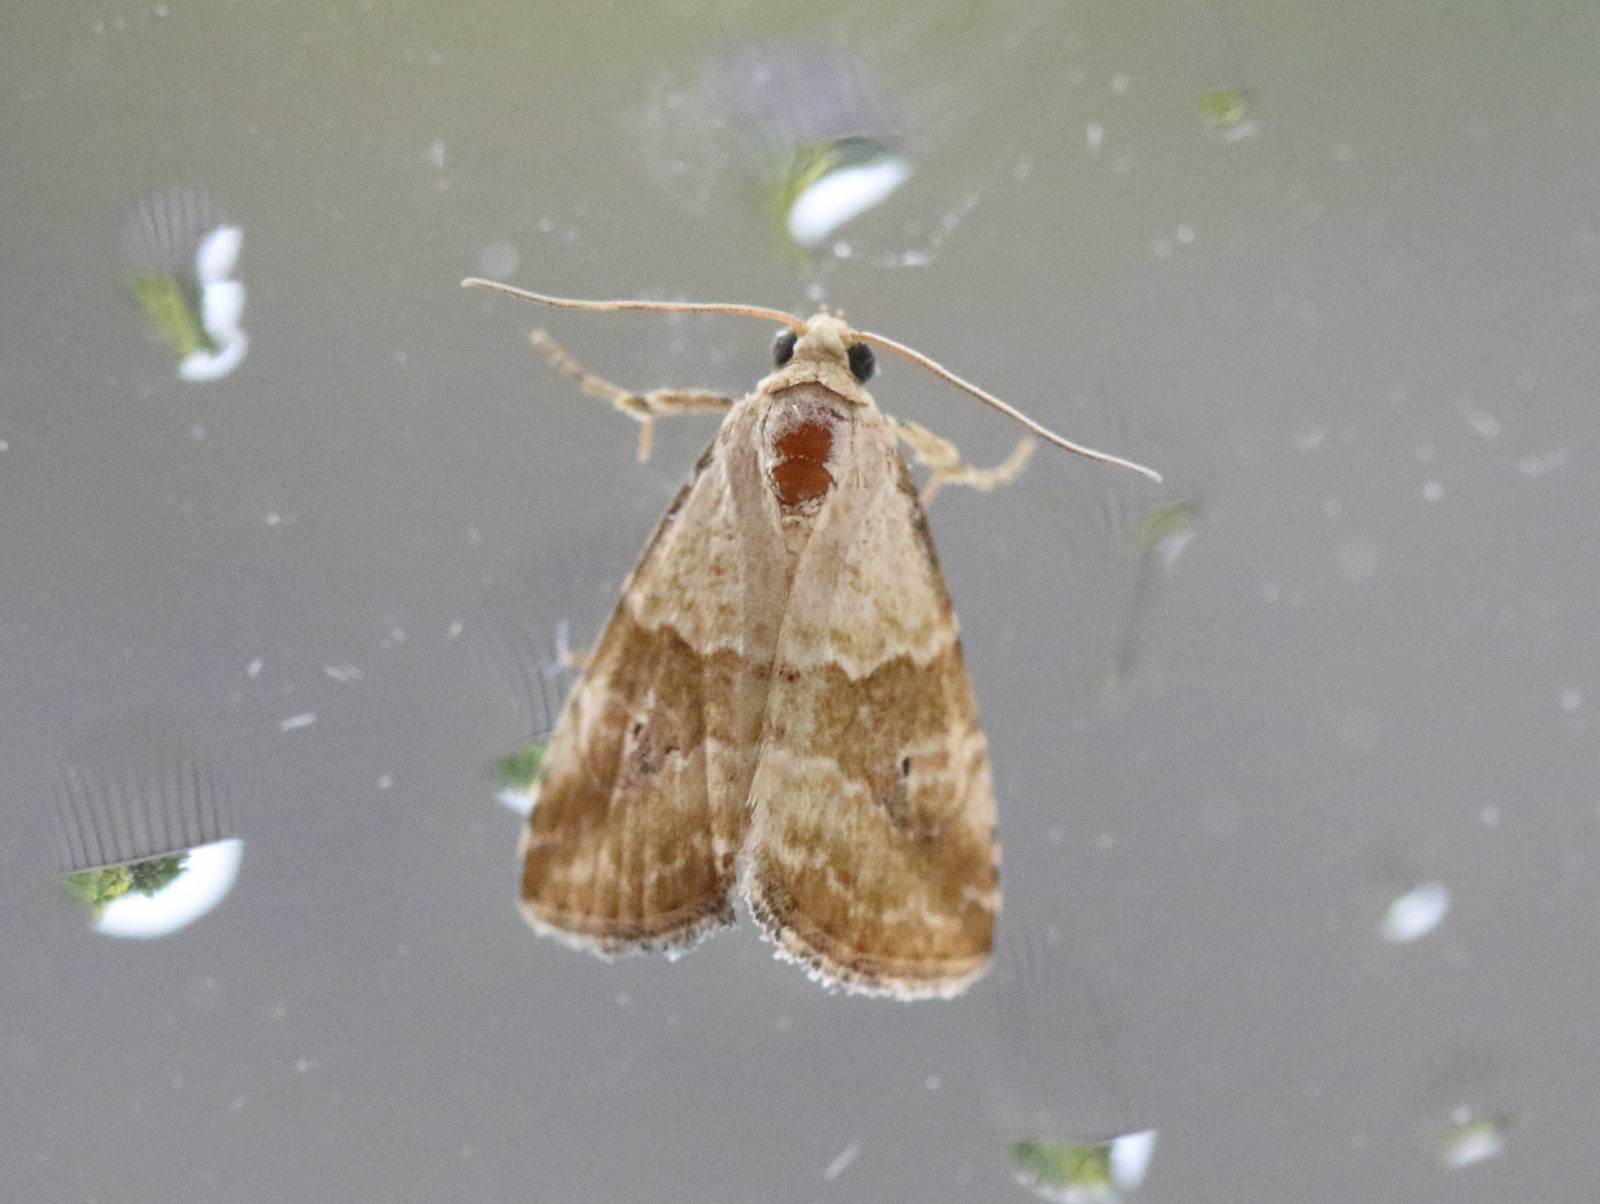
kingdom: Animalia
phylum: Arthropoda
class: Insecta
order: Lepidoptera
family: Noctuidae
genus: Maliattha
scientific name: Maliattha amorpha
